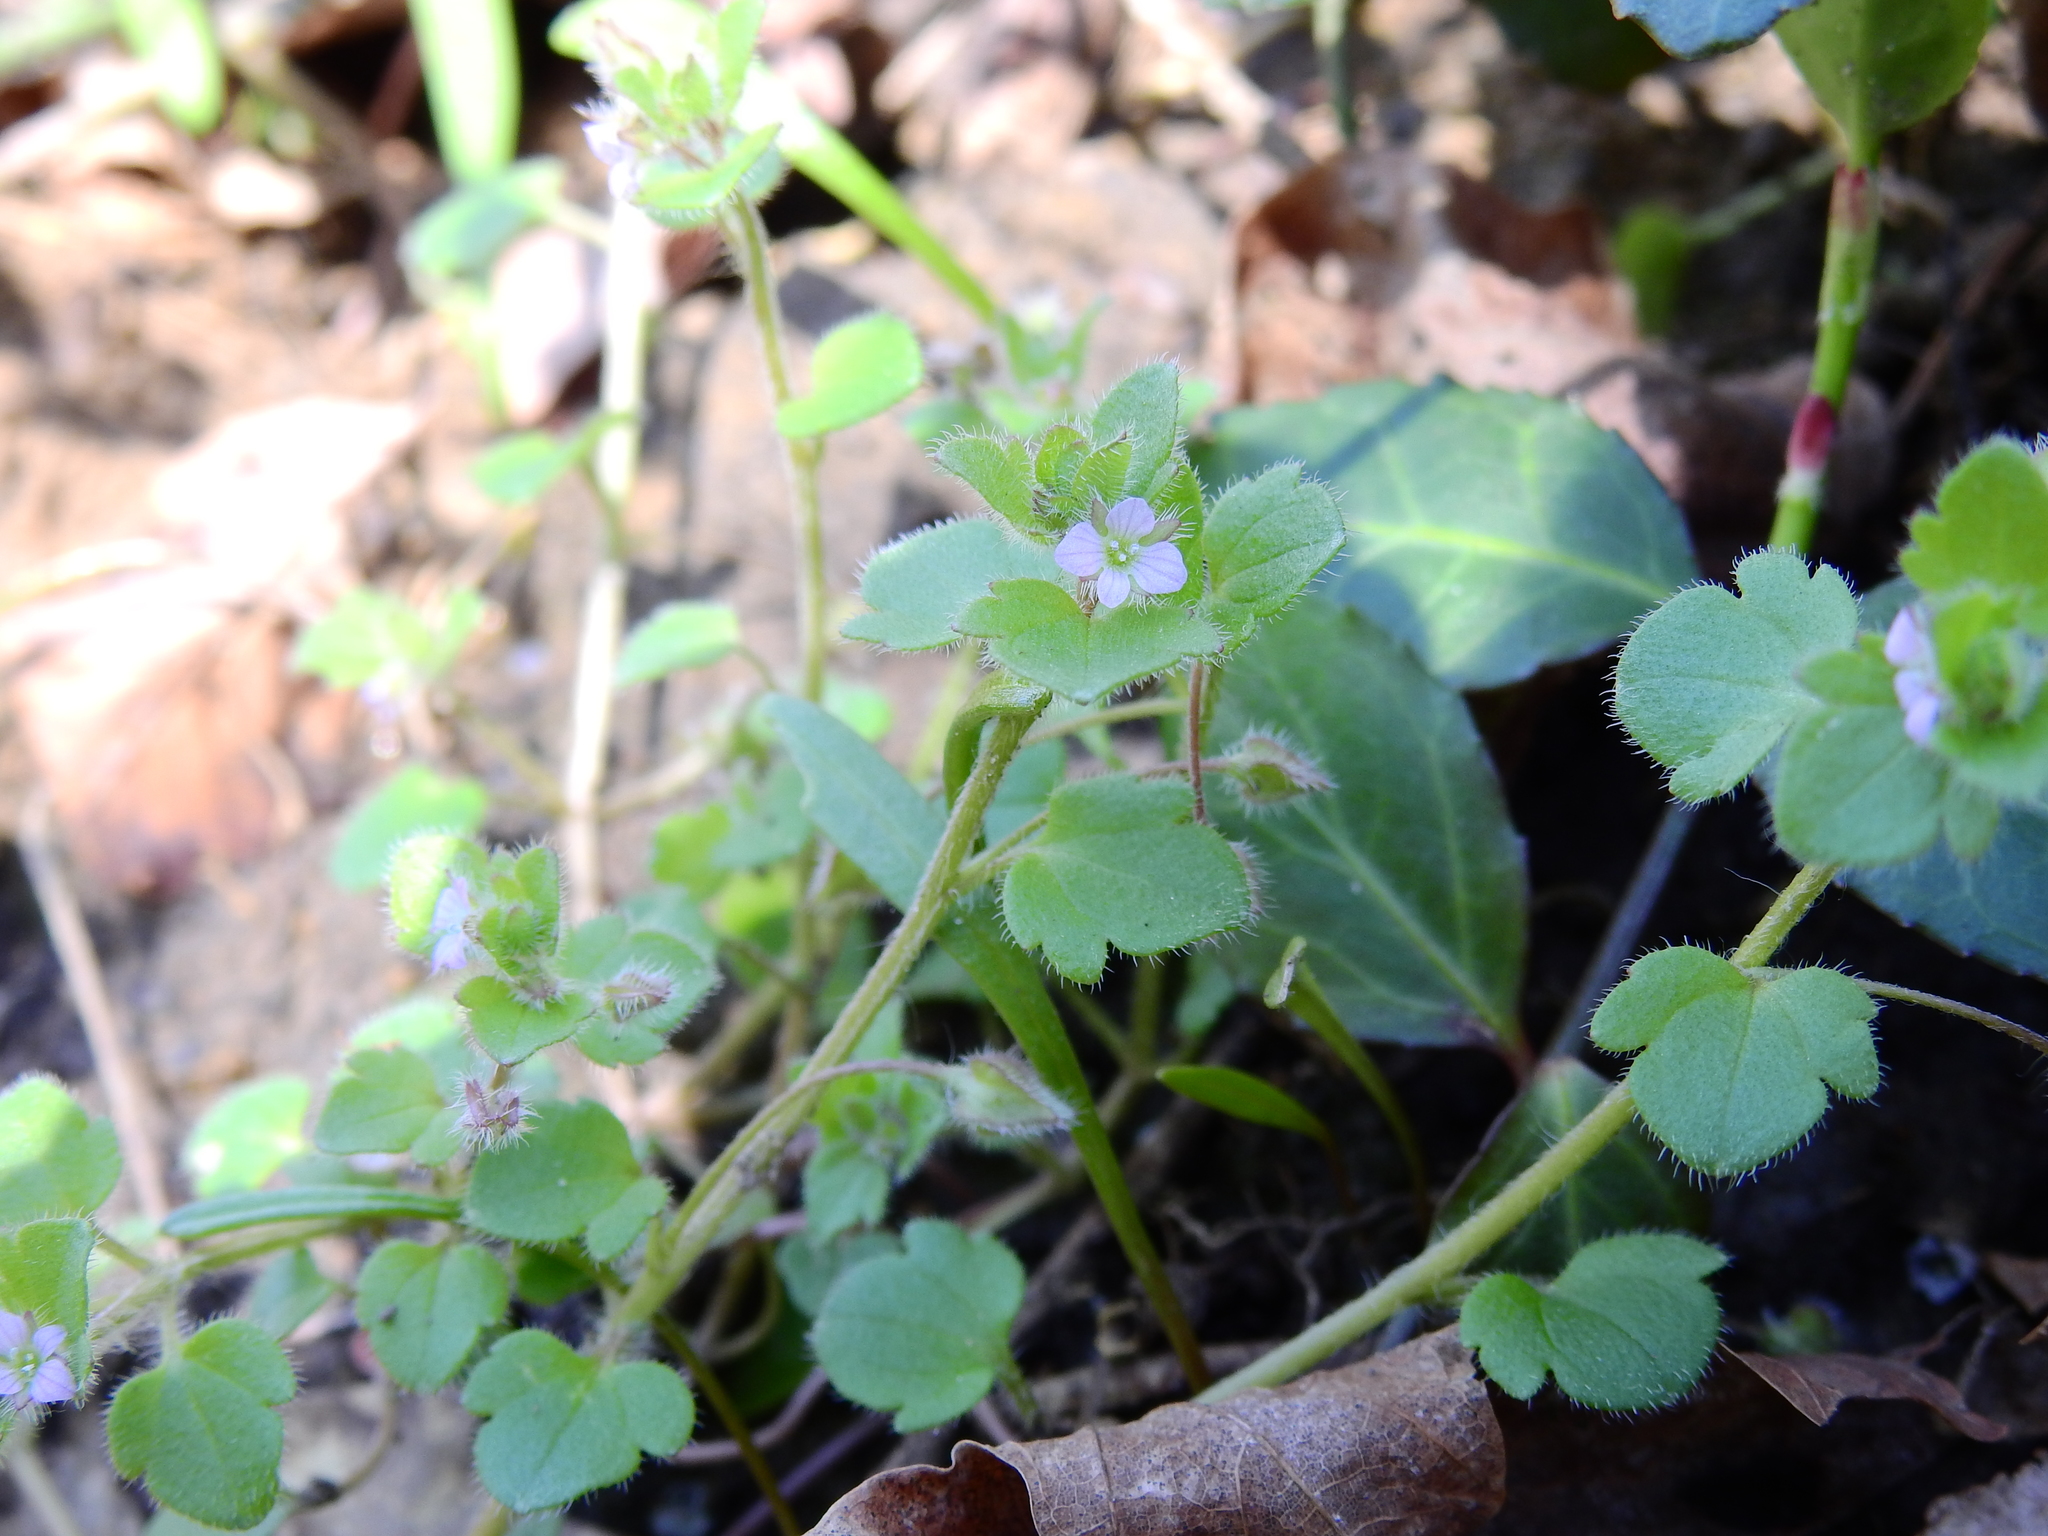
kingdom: Plantae
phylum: Tracheophyta
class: Magnoliopsida
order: Lamiales
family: Plantaginaceae
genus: Veronica
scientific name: Veronica sublobata
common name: False ivy-leaved speedwell
